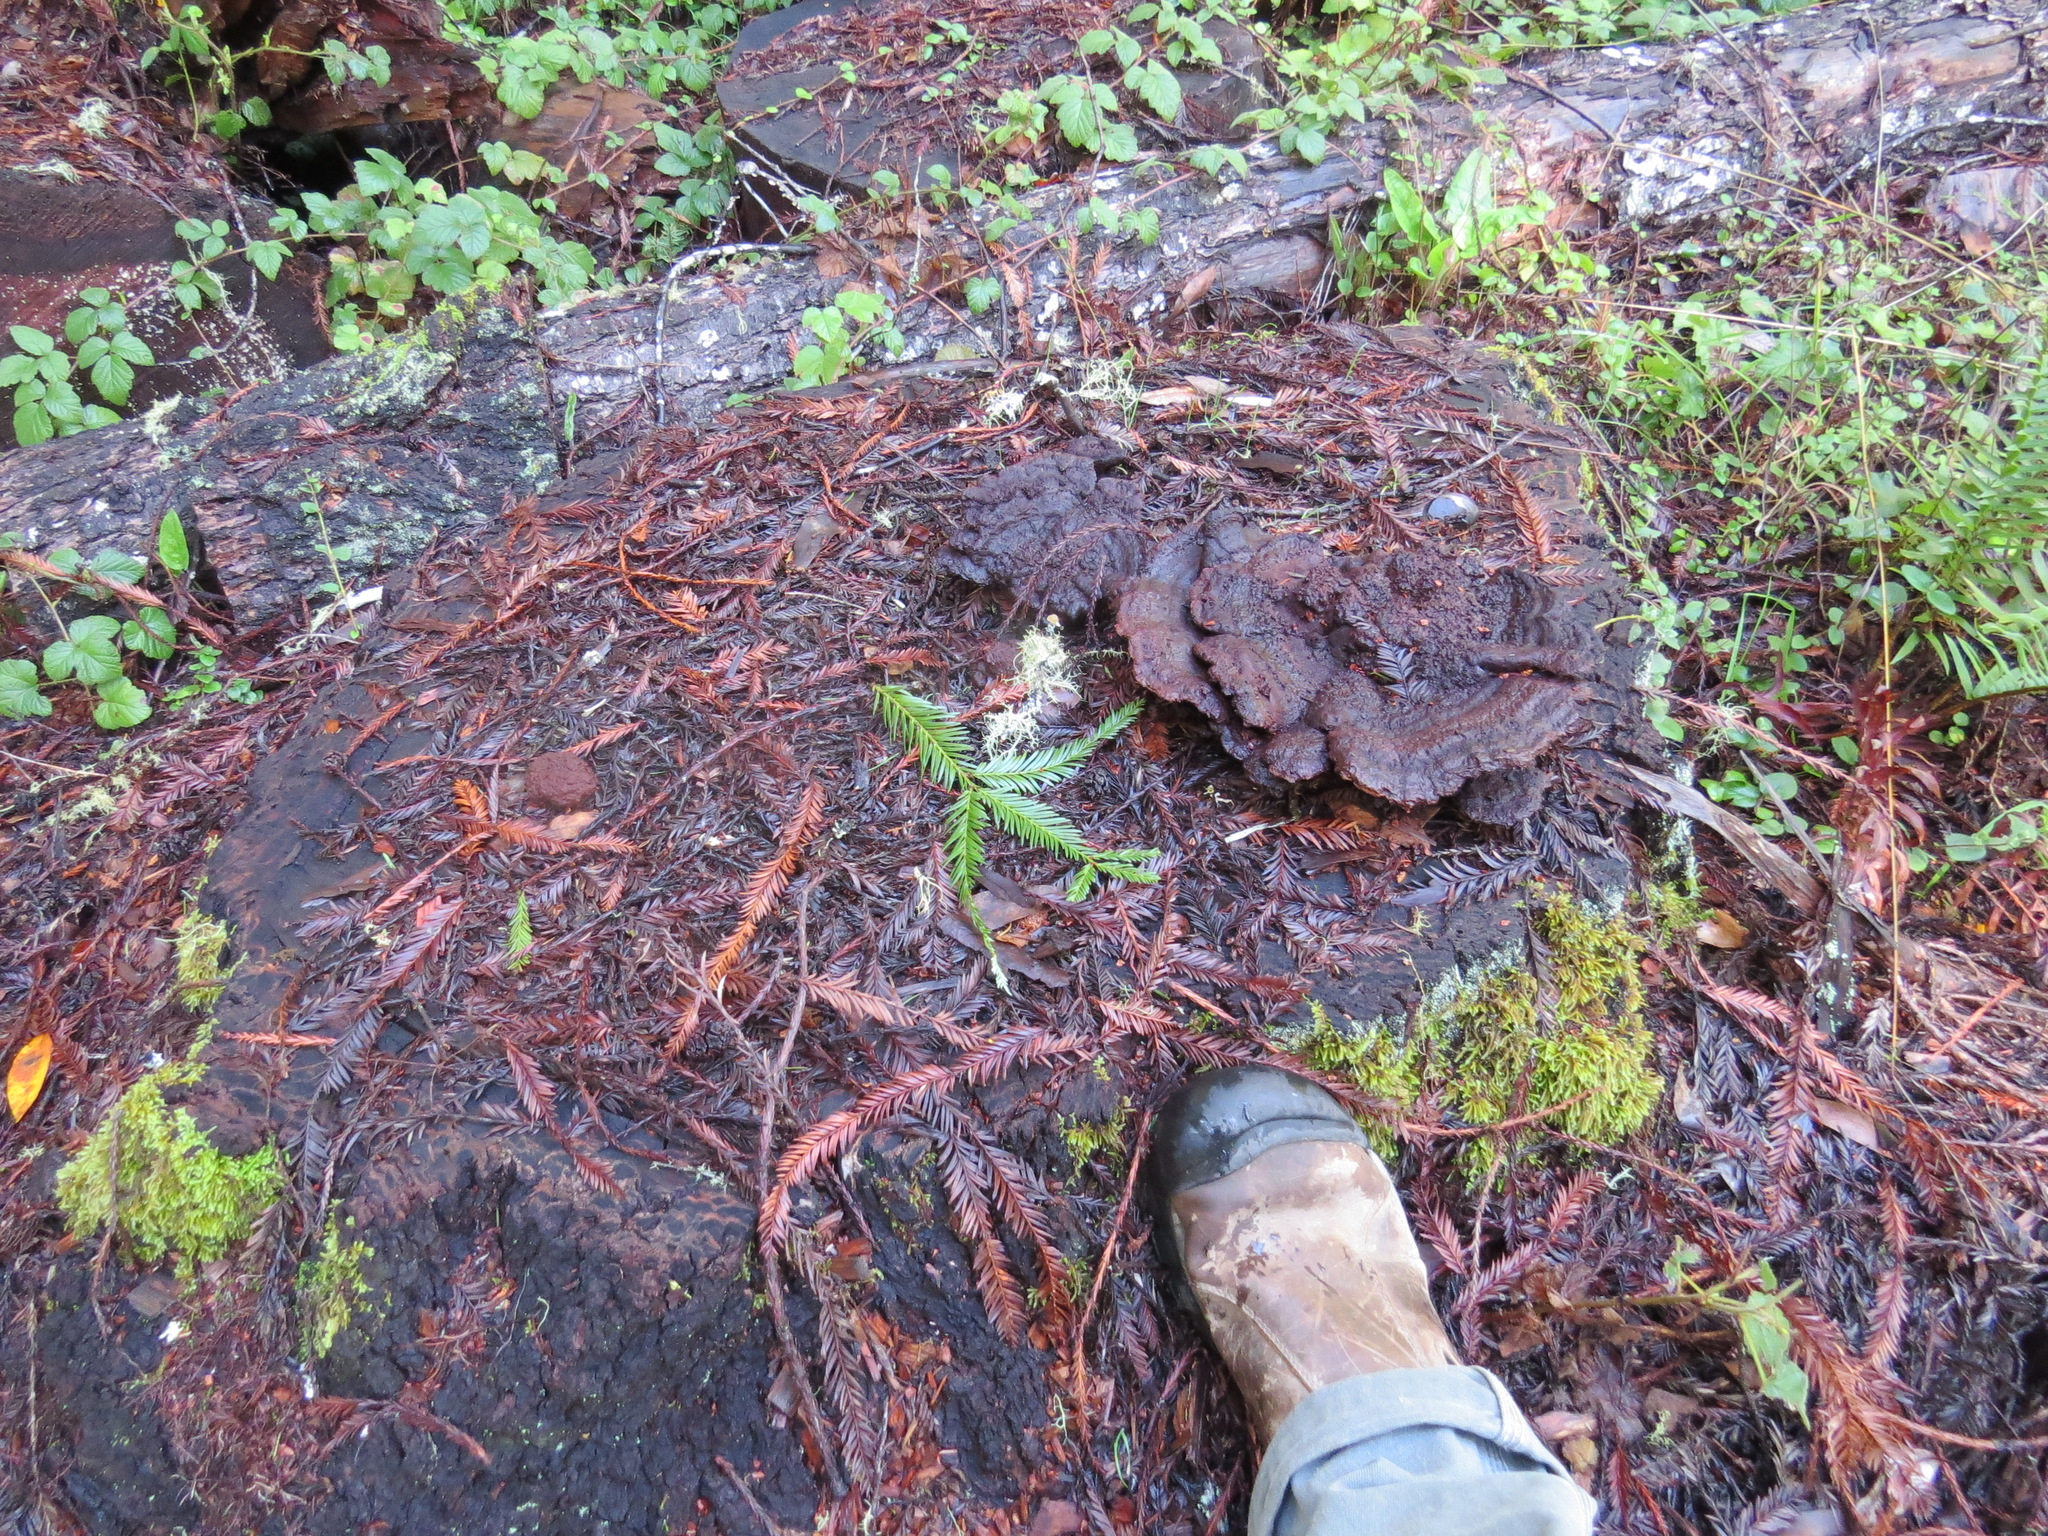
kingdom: Fungi
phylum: Basidiomycota
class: Agaricomycetes
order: Polyporales
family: Laetiporaceae
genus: Phaeolus
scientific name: Phaeolus schweinitzii
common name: Dyer's mazegill
